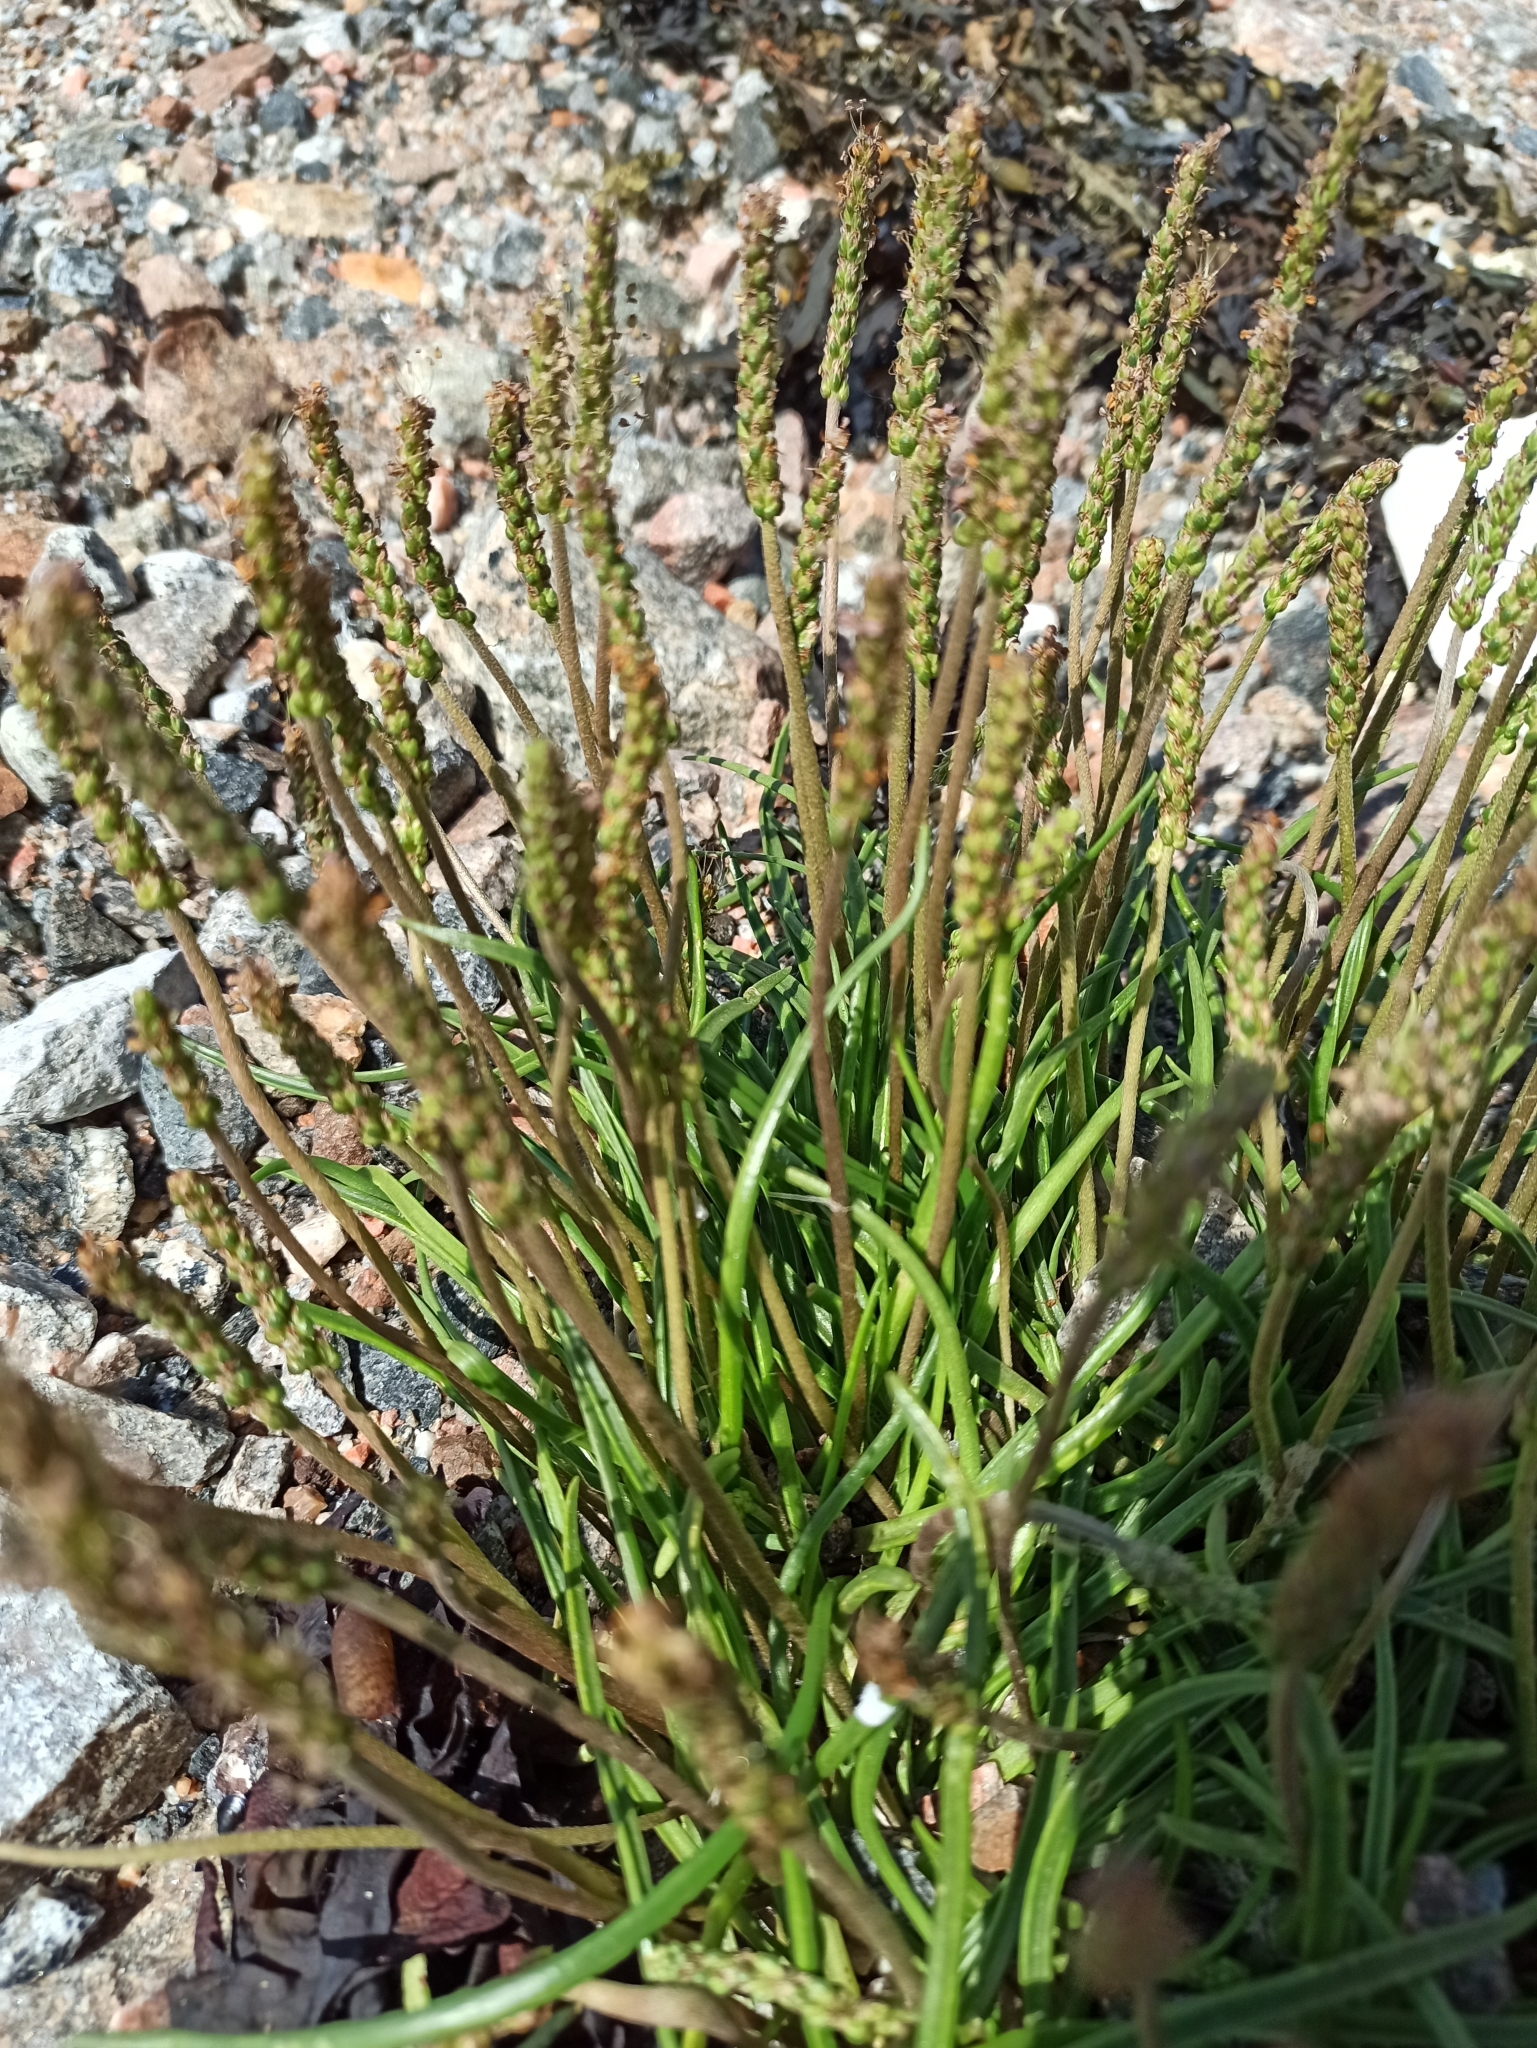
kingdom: Plantae
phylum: Tracheophyta
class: Magnoliopsida
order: Lamiales
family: Plantaginaceae
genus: Plantago
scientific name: Plantago maritima
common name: Sea plantain
